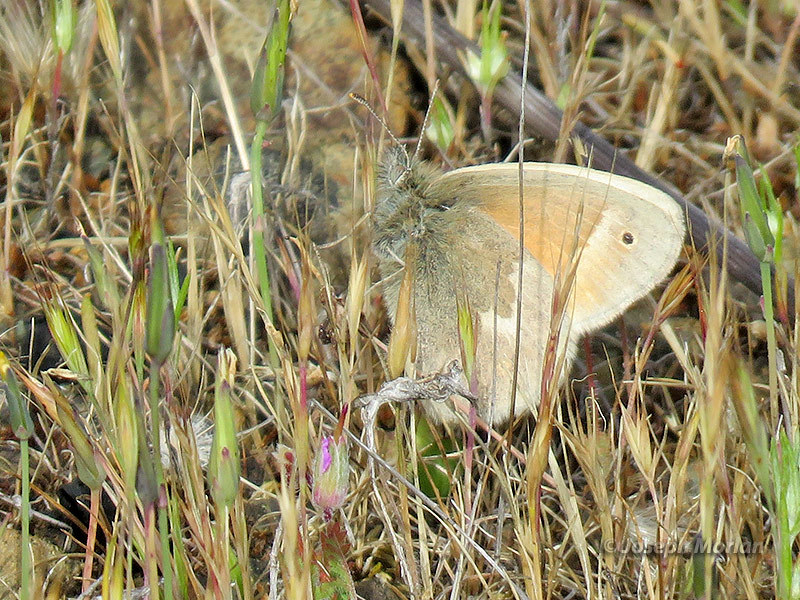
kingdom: Animalia
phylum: Arthropoda
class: Insecta
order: Lepidoptera
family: Nymphalidae
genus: Coenonympha
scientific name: Coenonympha california
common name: Common ringlet
